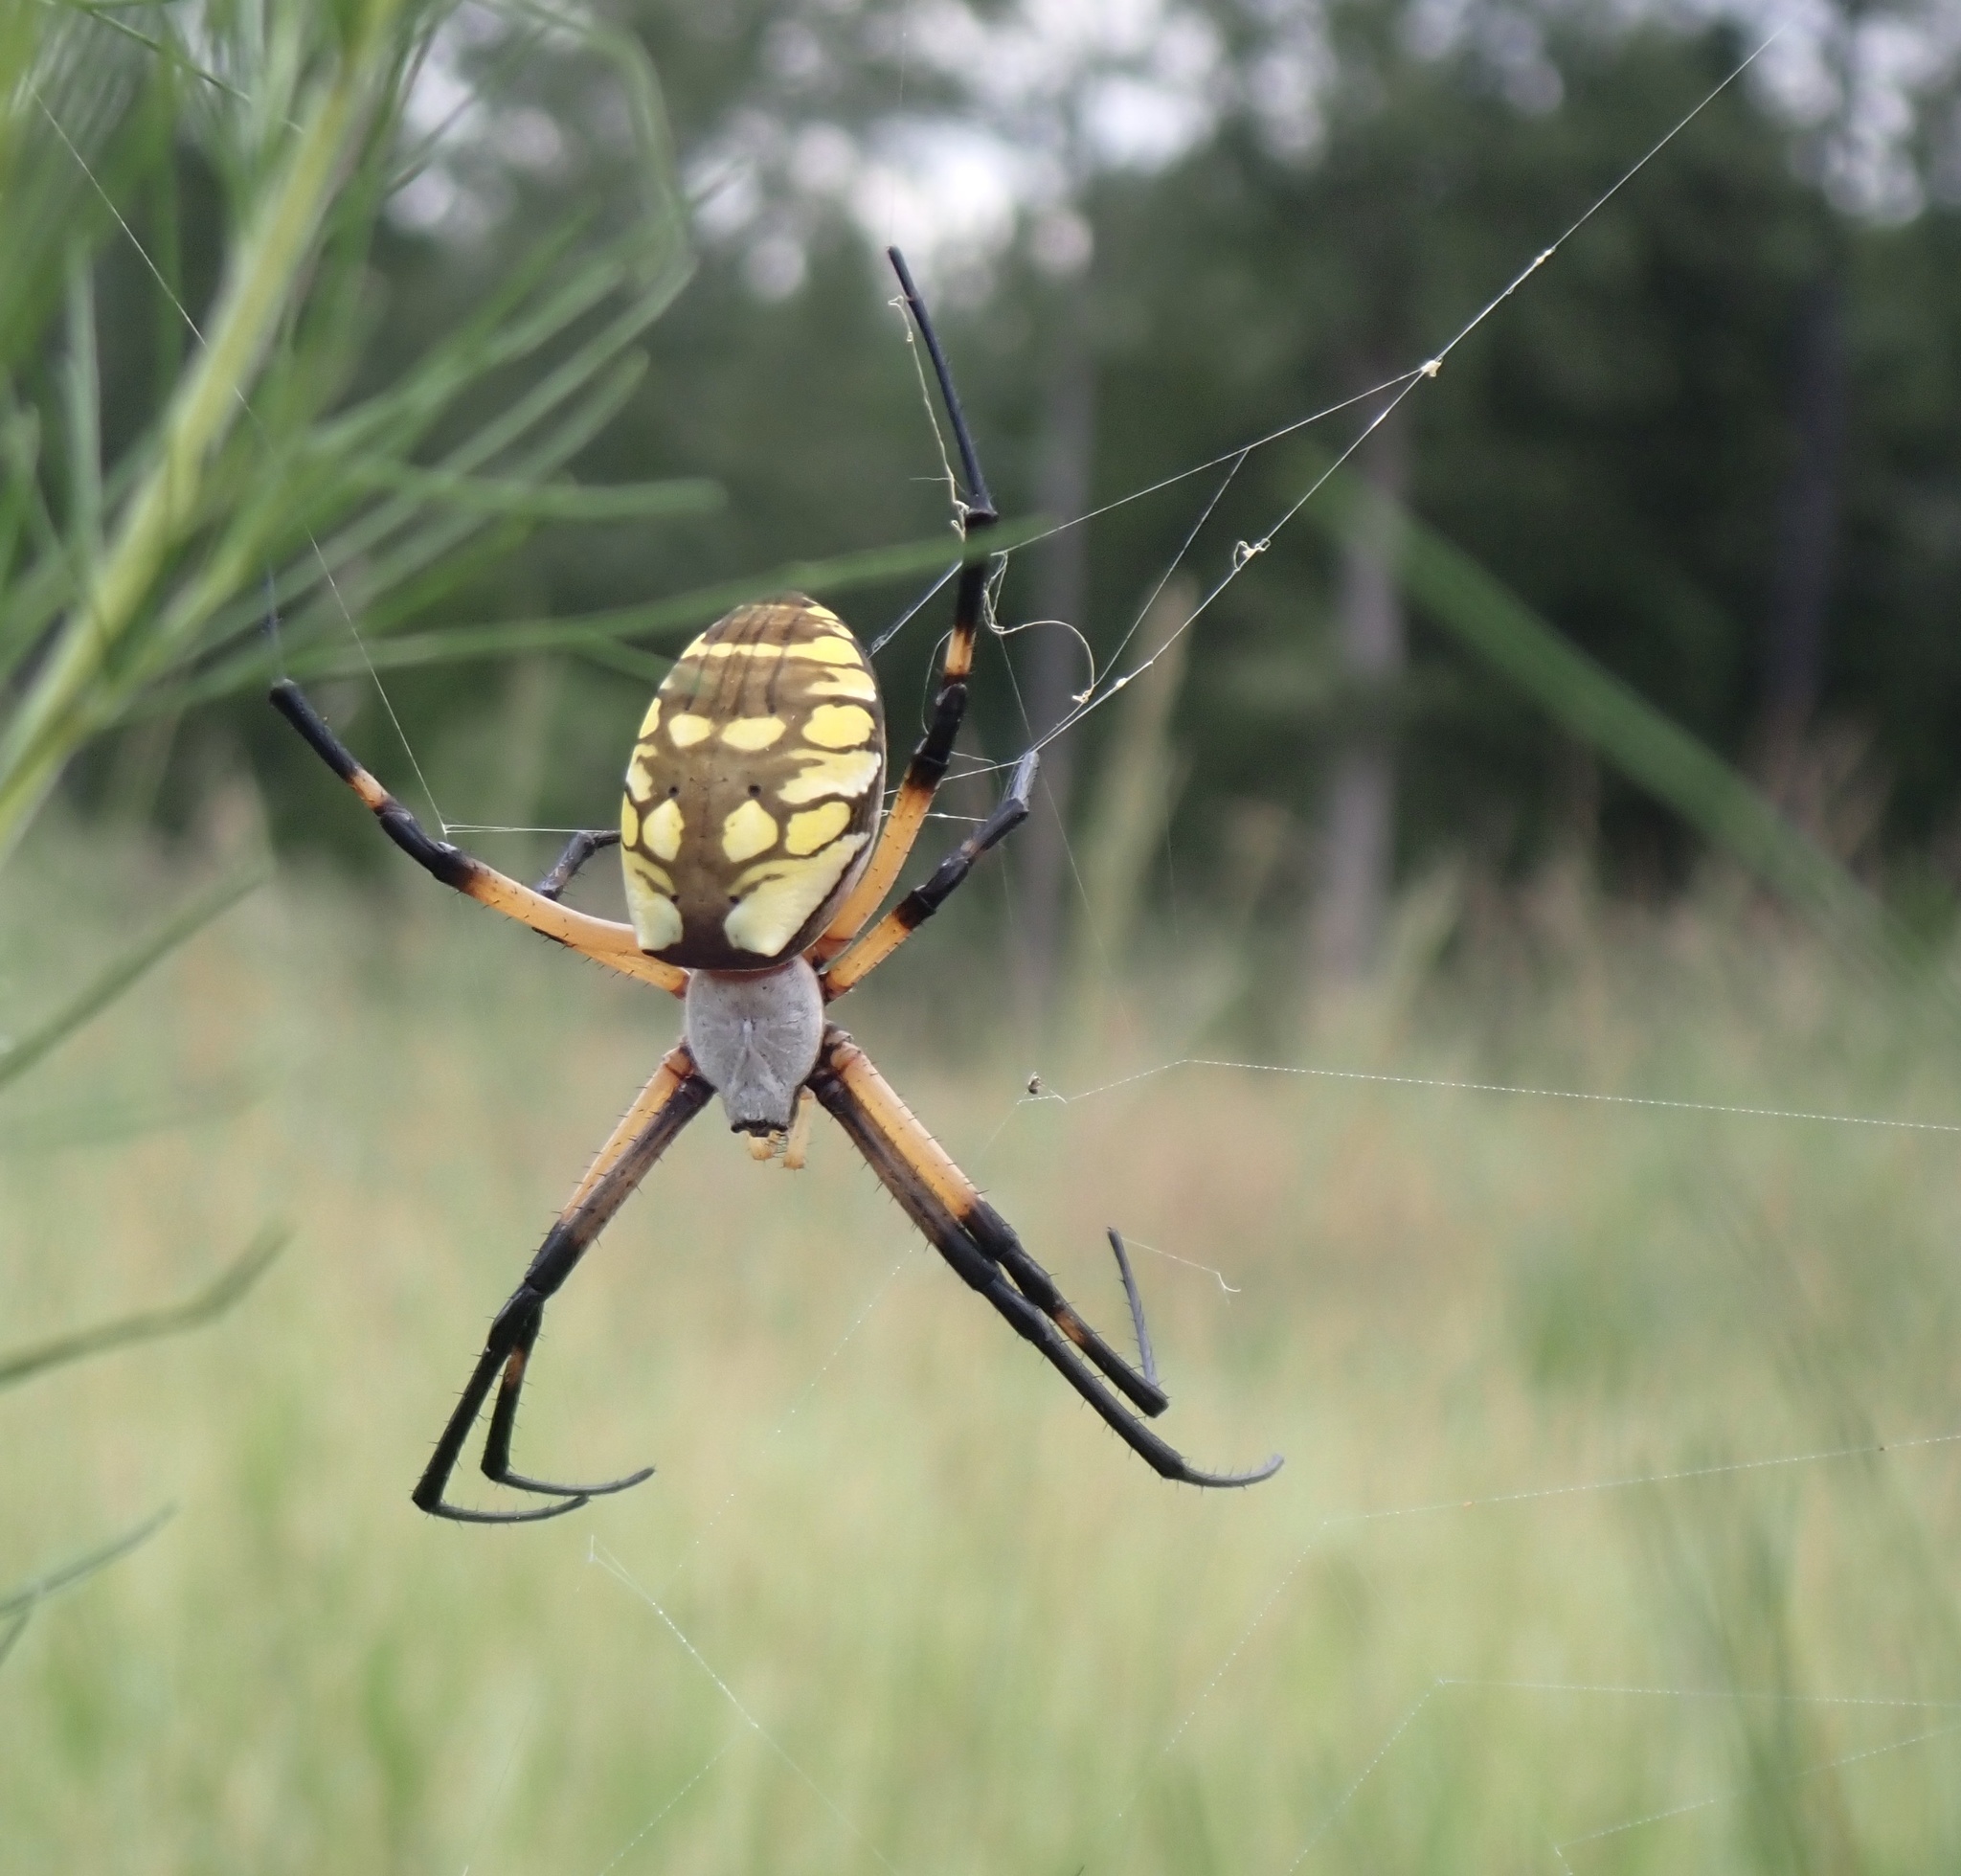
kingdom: Animalia
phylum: Arthropoda
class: Arachnida
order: Araneae
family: Araneidae
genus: Argiope
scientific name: Argiope aurantia
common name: Orb weavers
